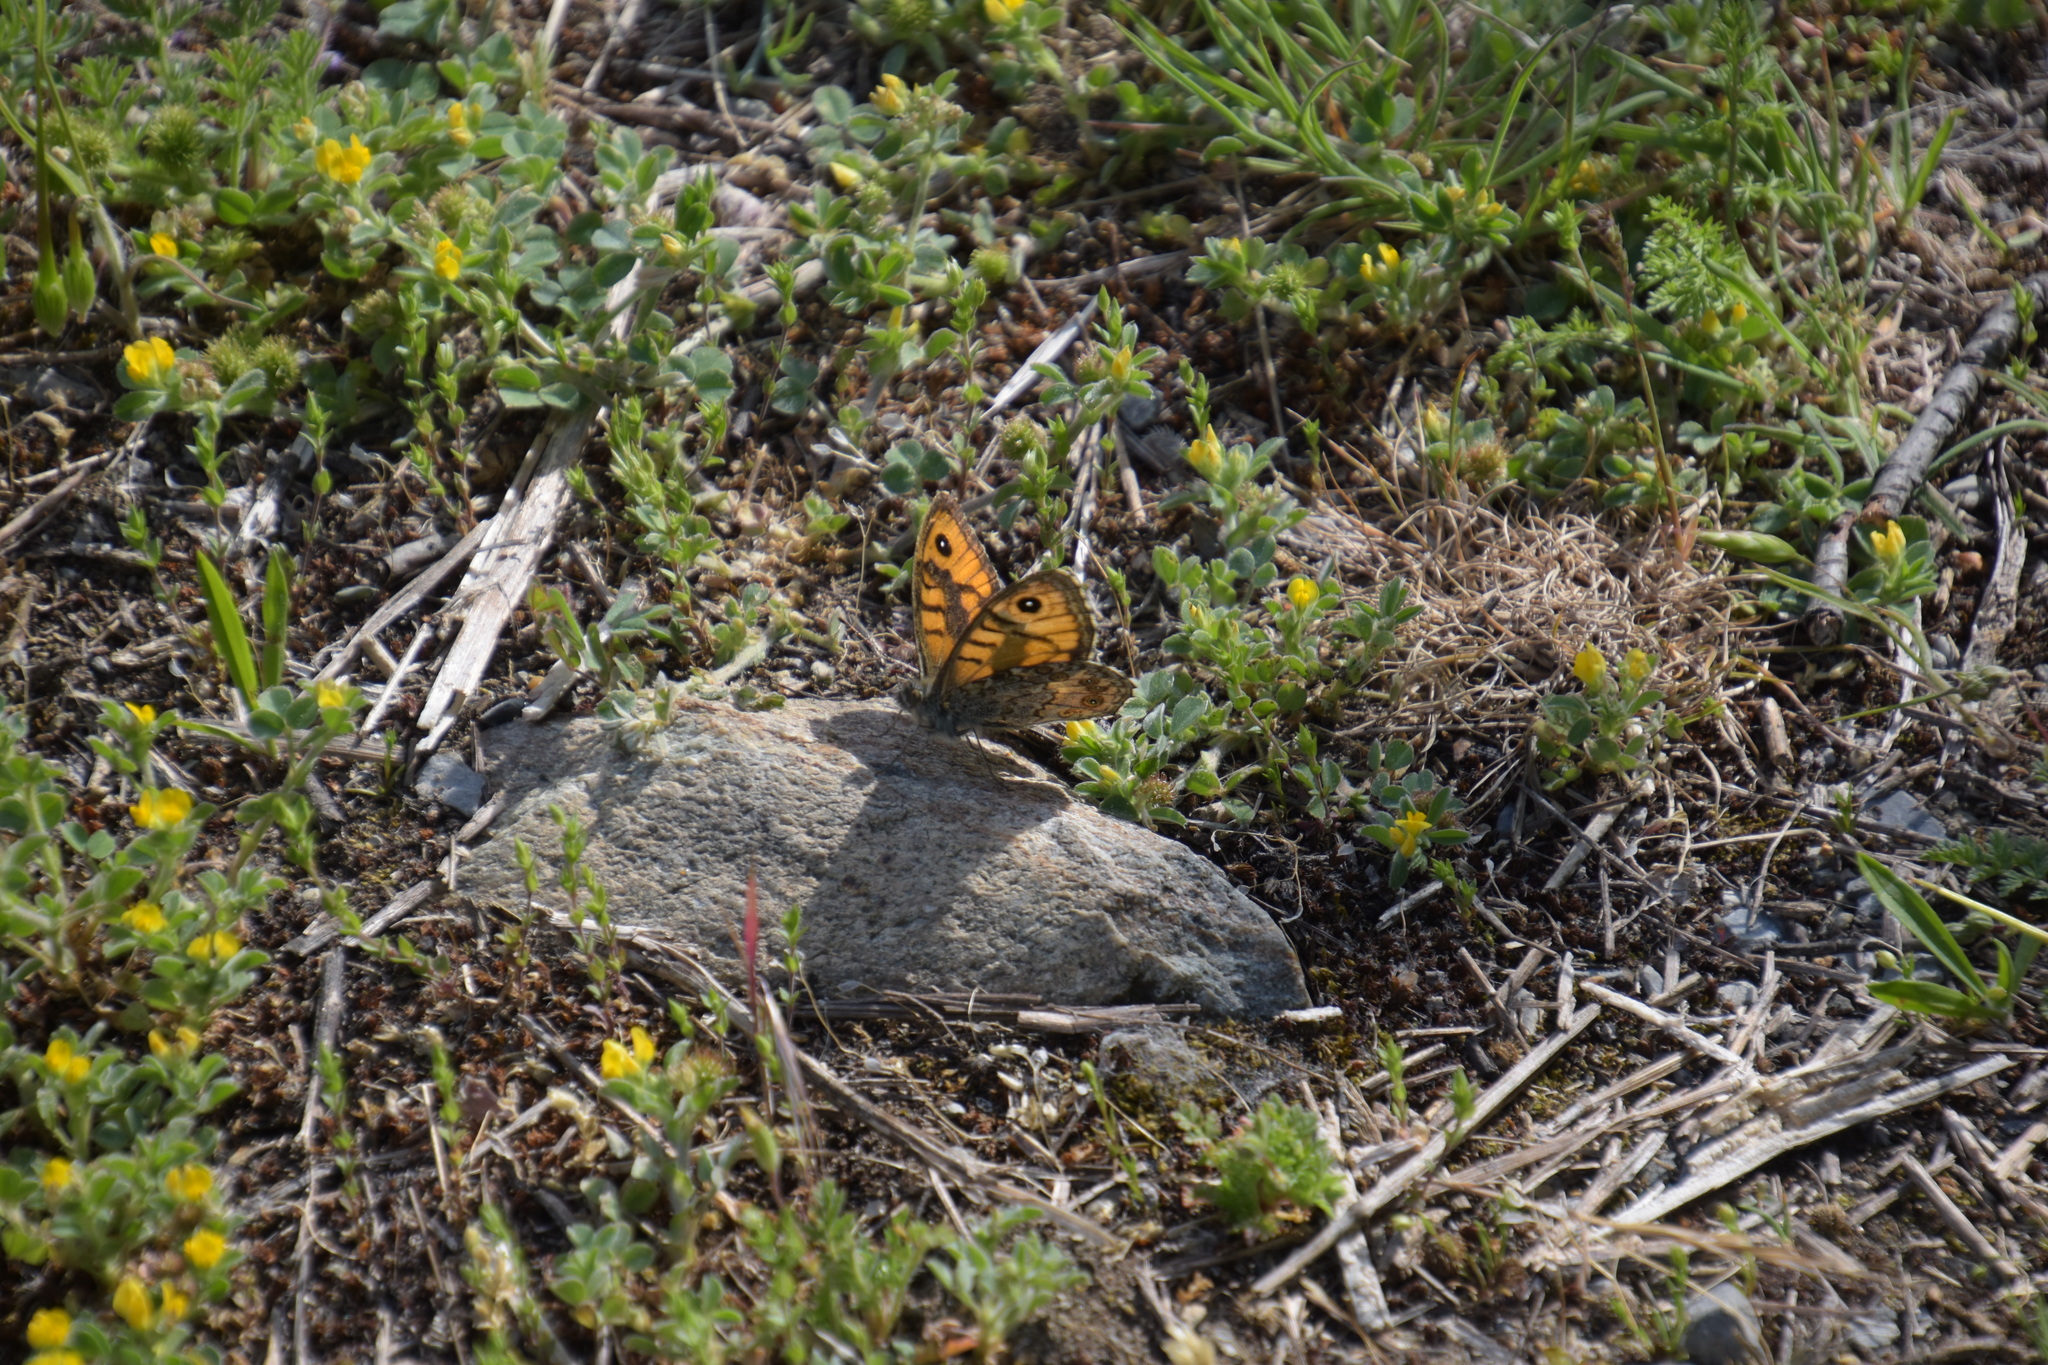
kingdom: Animalia
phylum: Arthropoda
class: Insecta
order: Lepidoptera
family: Nymphalidae
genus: Pararge
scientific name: Pararge Lasiommata megera
